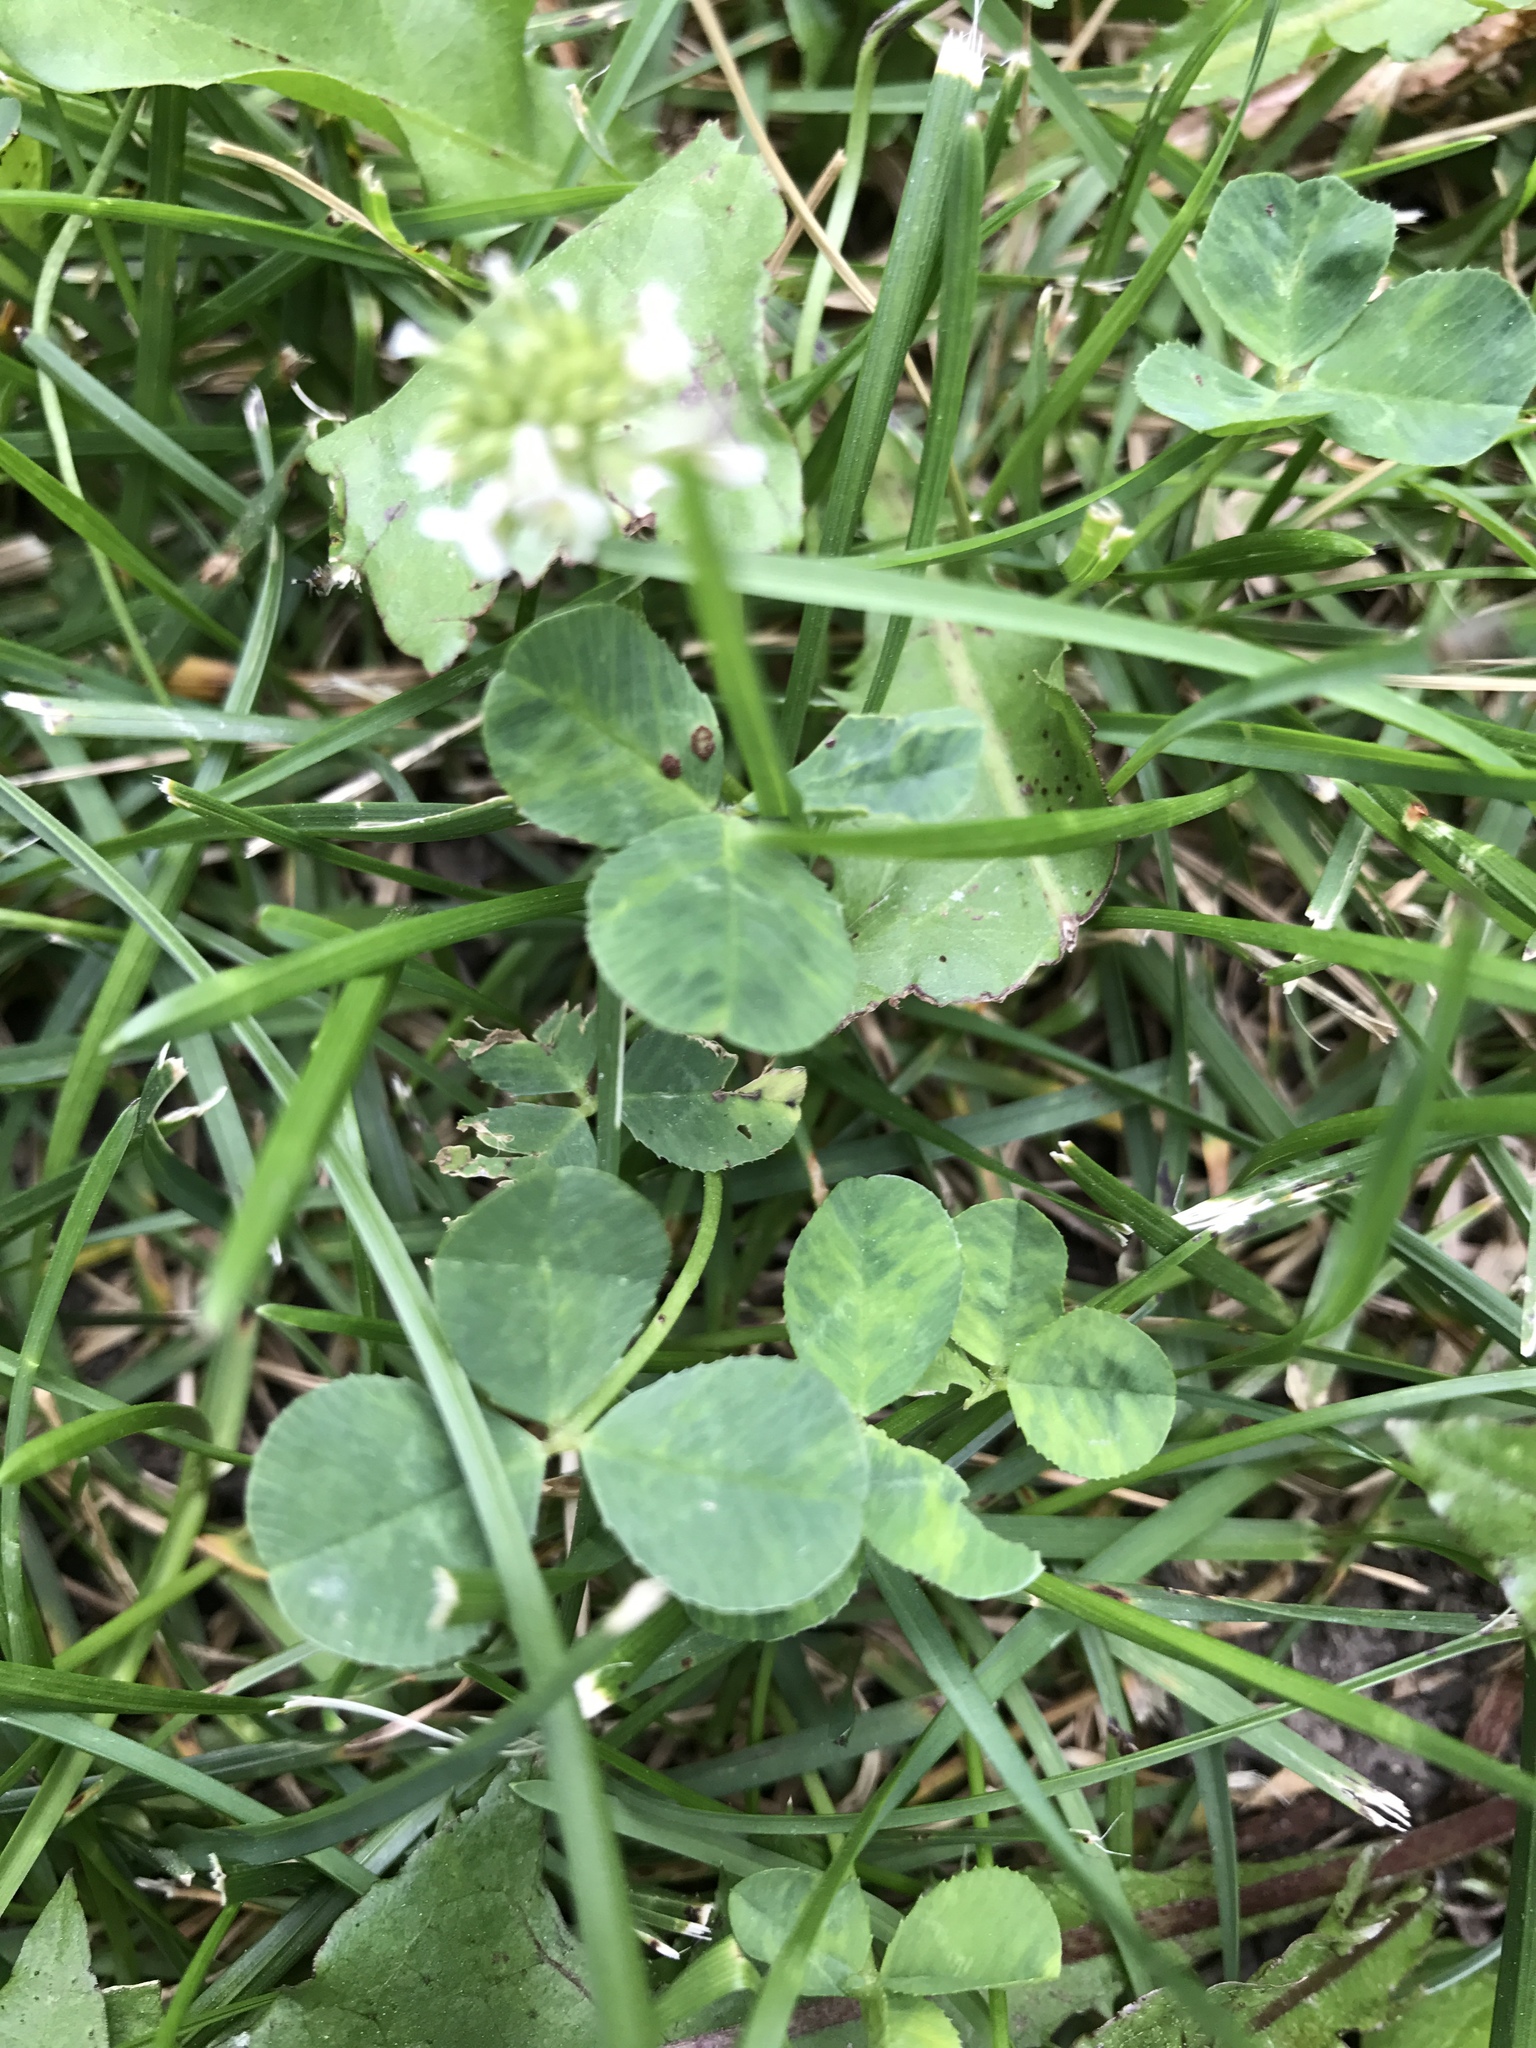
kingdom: Plantae
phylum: Tracheophyta
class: Magnoliopsida
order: Fabales
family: Fabaceae
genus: Trifolium
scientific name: Trifolium repens
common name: White clover
